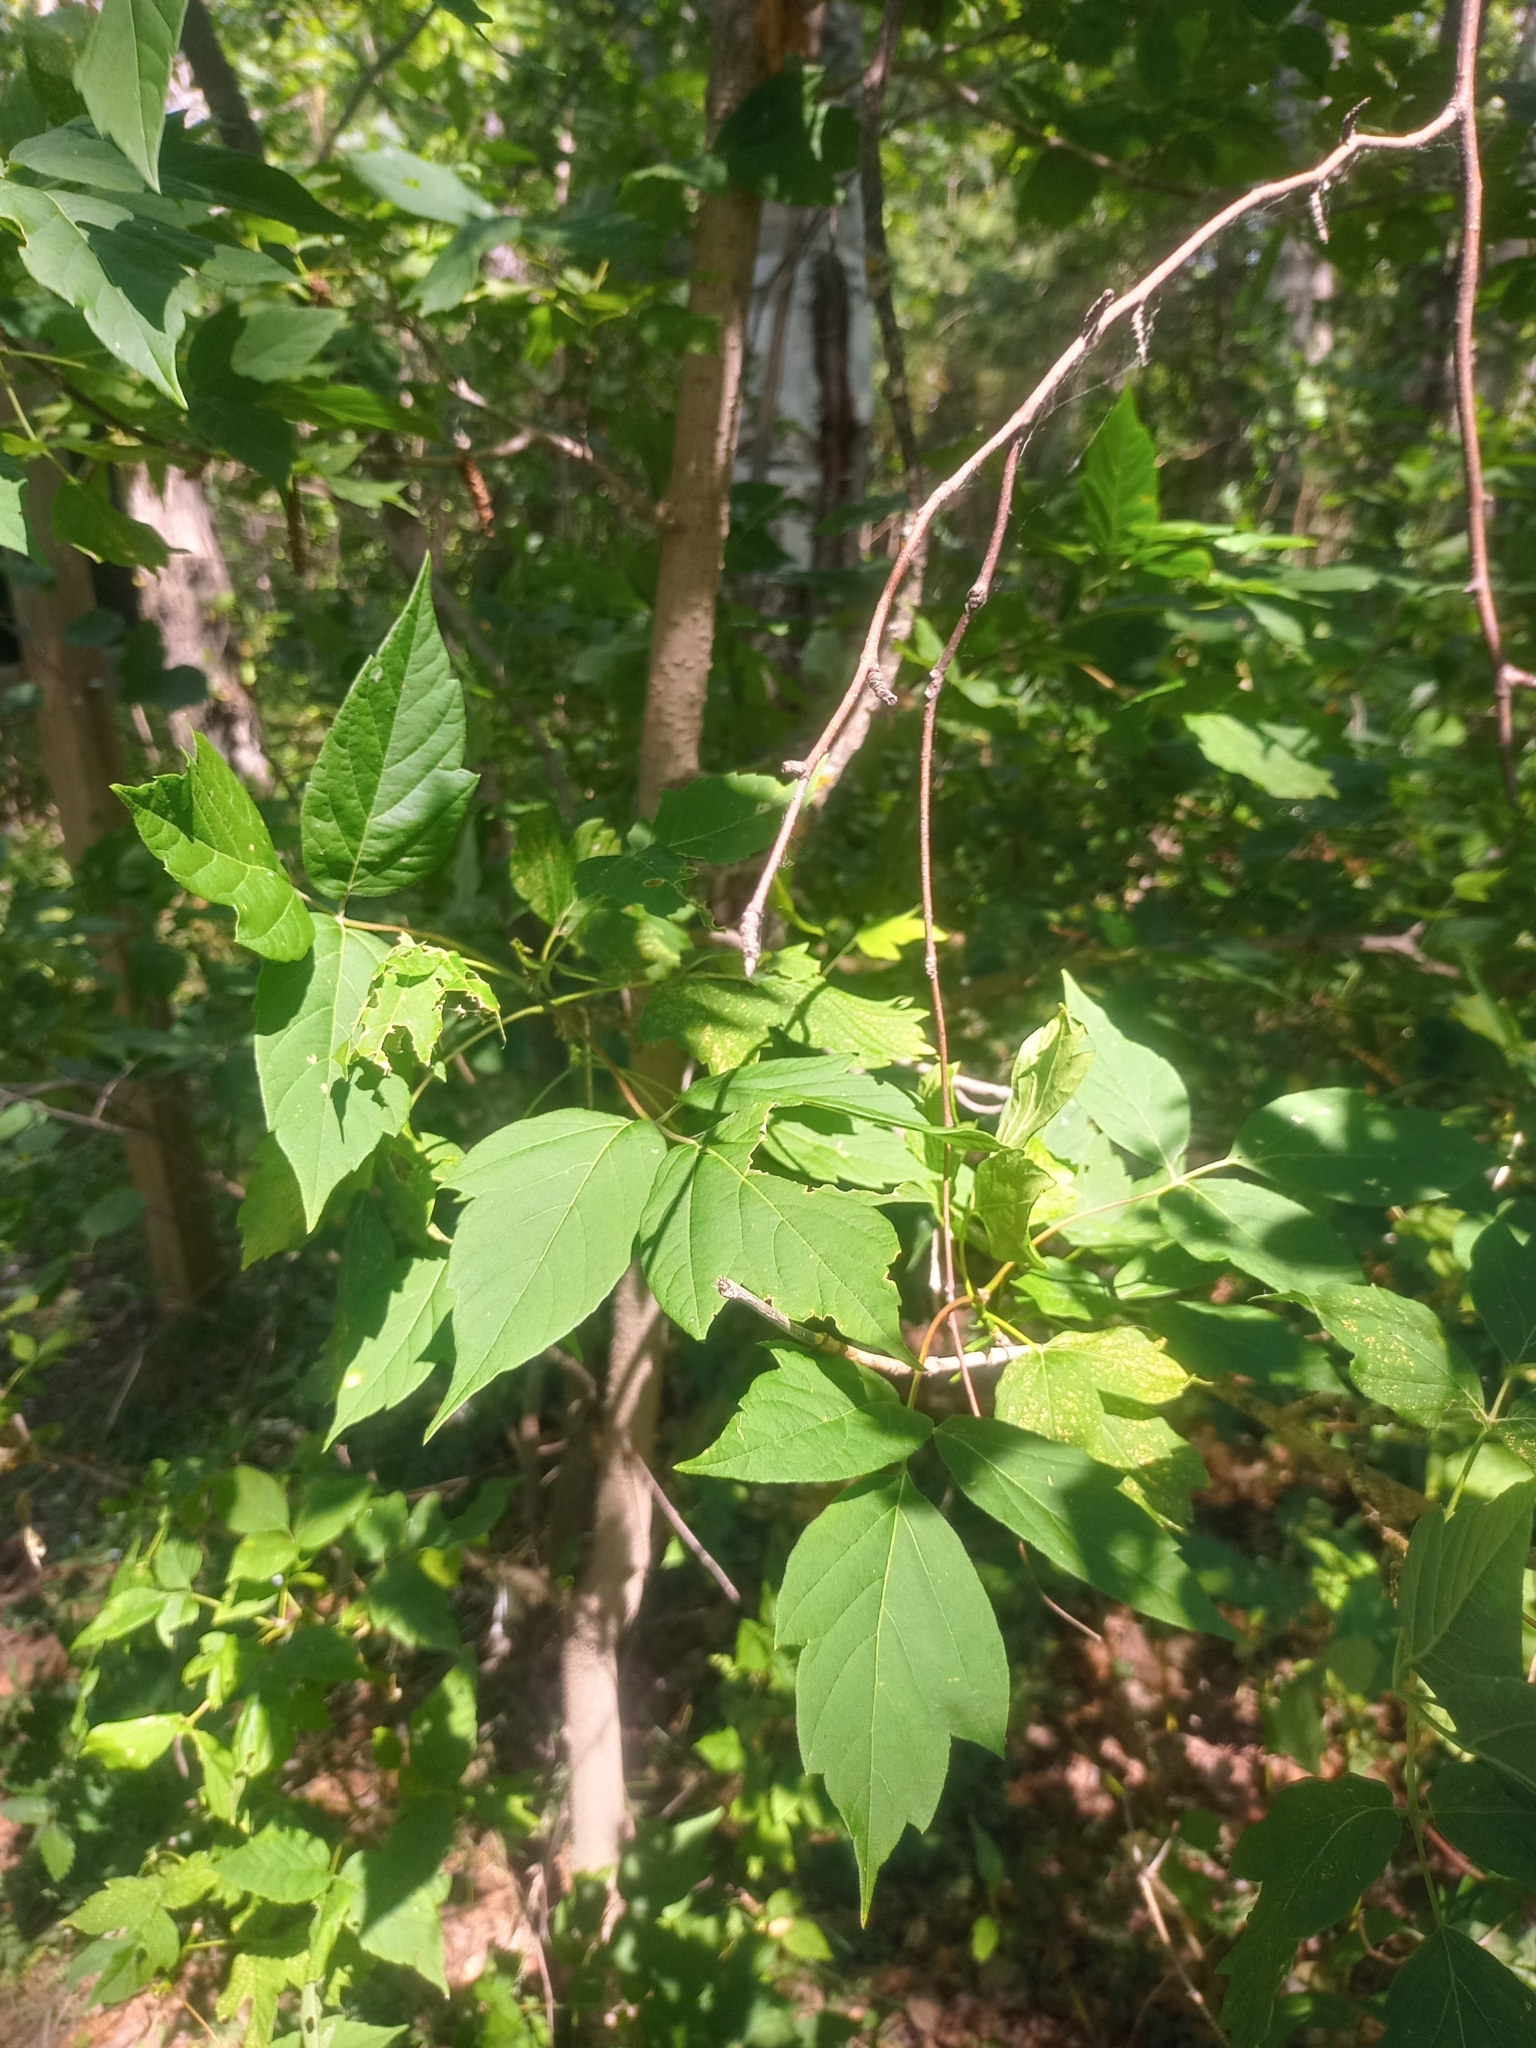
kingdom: Plantae
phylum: Tracheophyta
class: Magnoliopsida
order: Sapindales
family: Sapindaceae
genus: Acer
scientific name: Acer negundo
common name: Ashleaf maple
